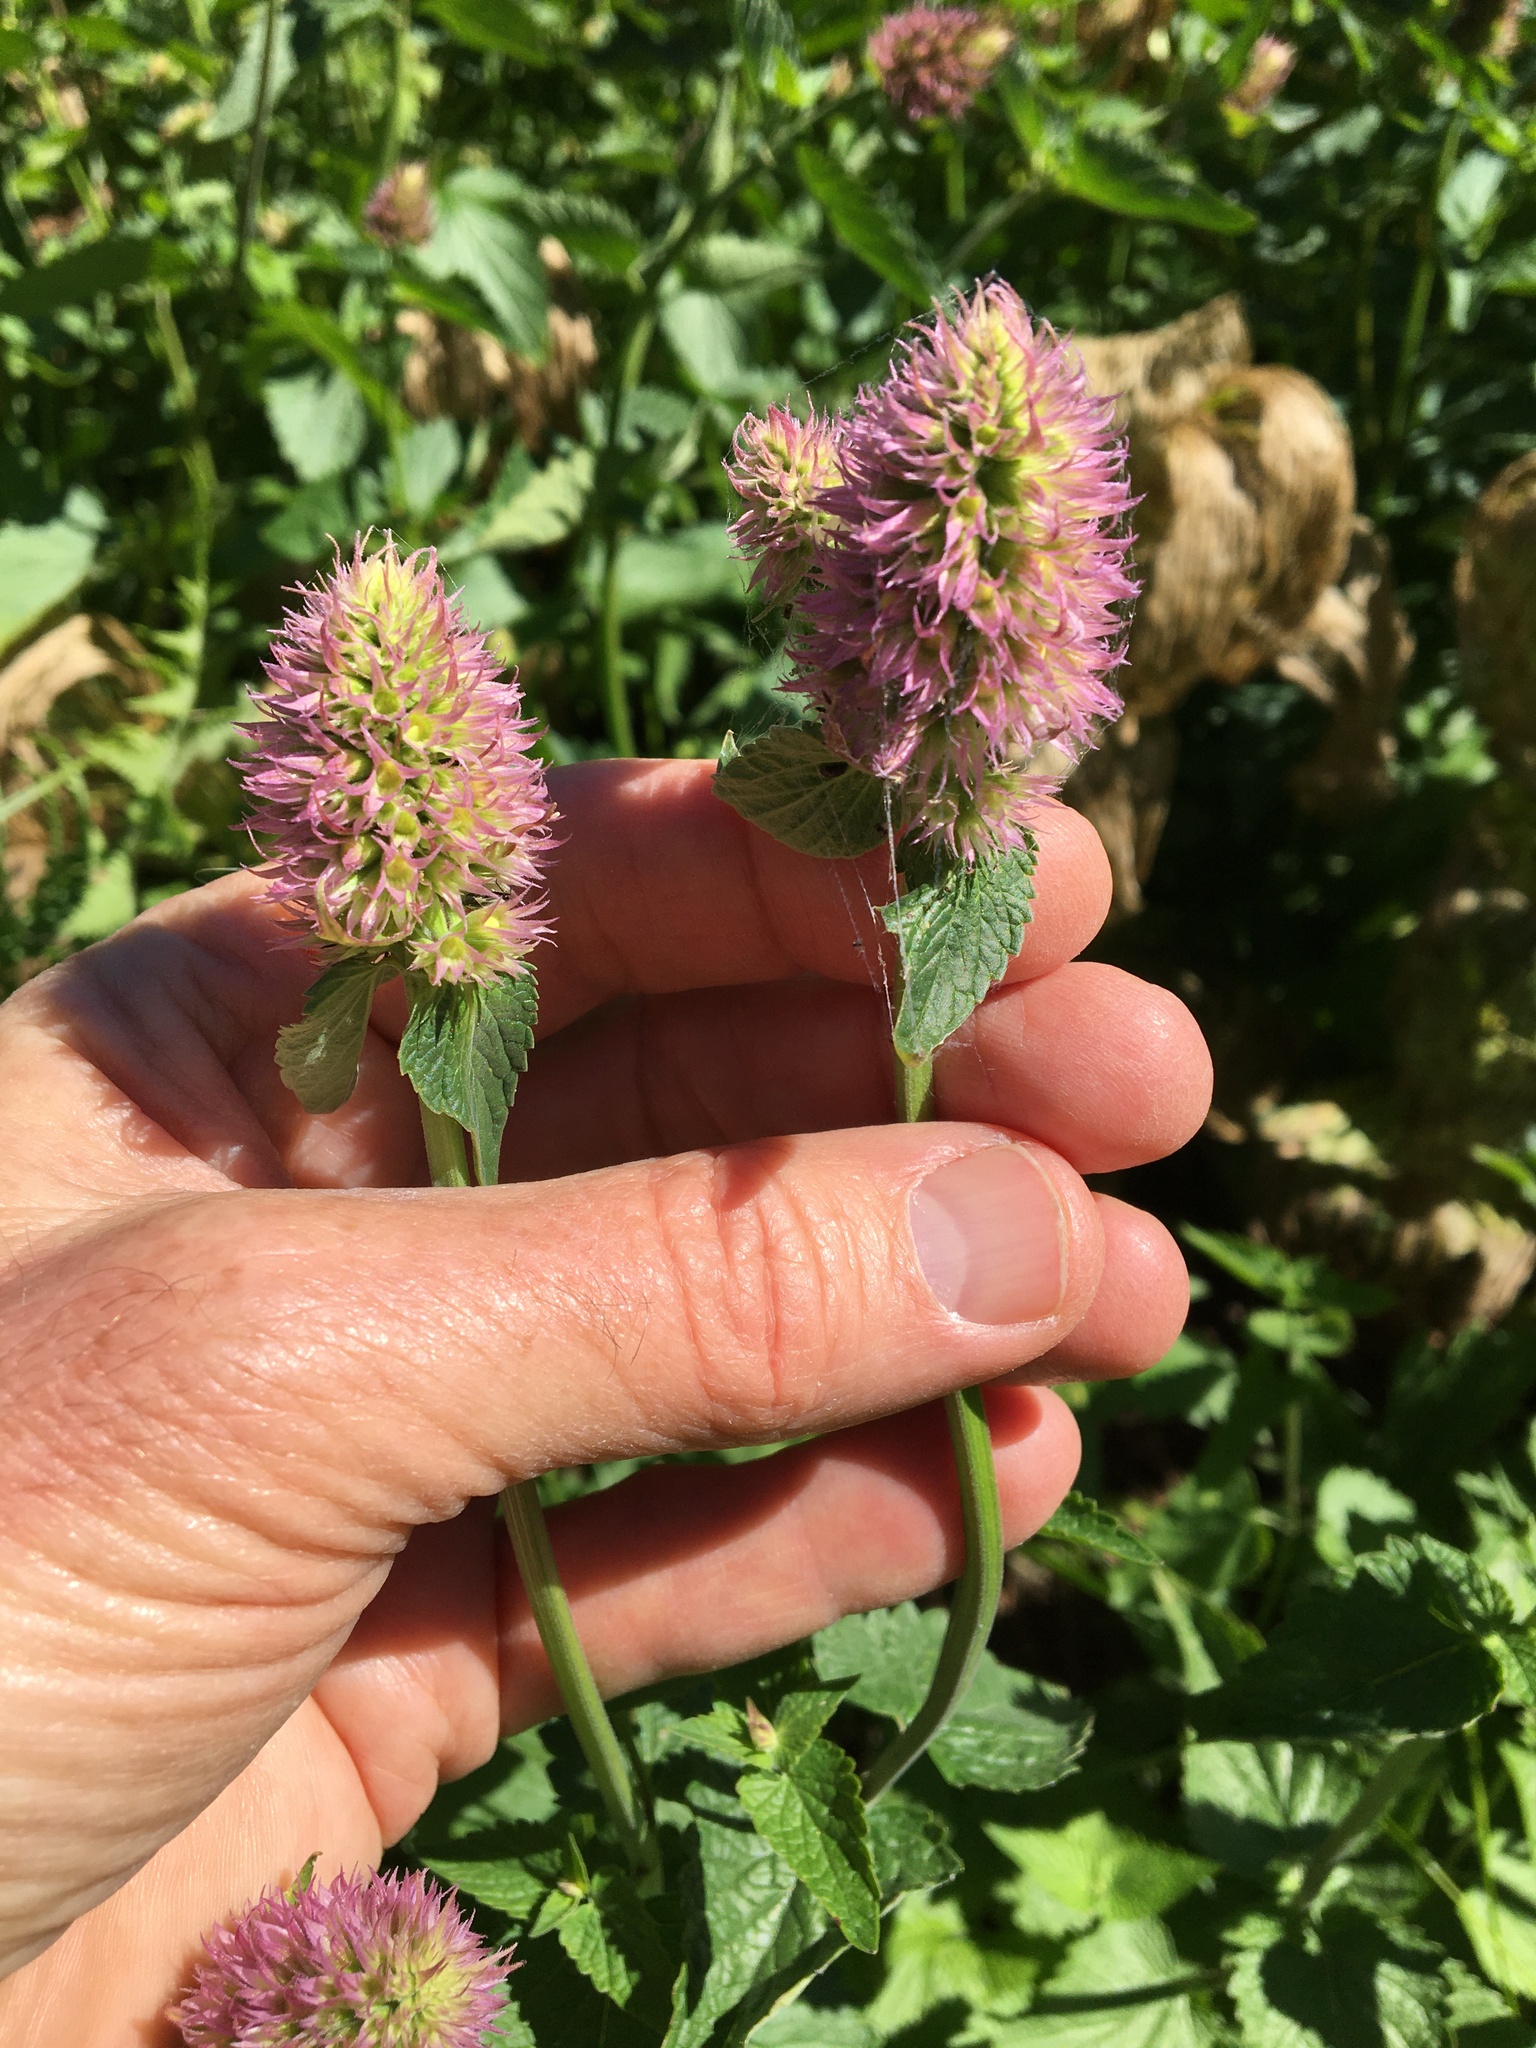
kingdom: Plantae
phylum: Tracheophyta
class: Magnoliopsida
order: Lamiales
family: Lamiaceae
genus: Agastache
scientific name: Agastache urticifolia
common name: Horsemint giant hyssop
